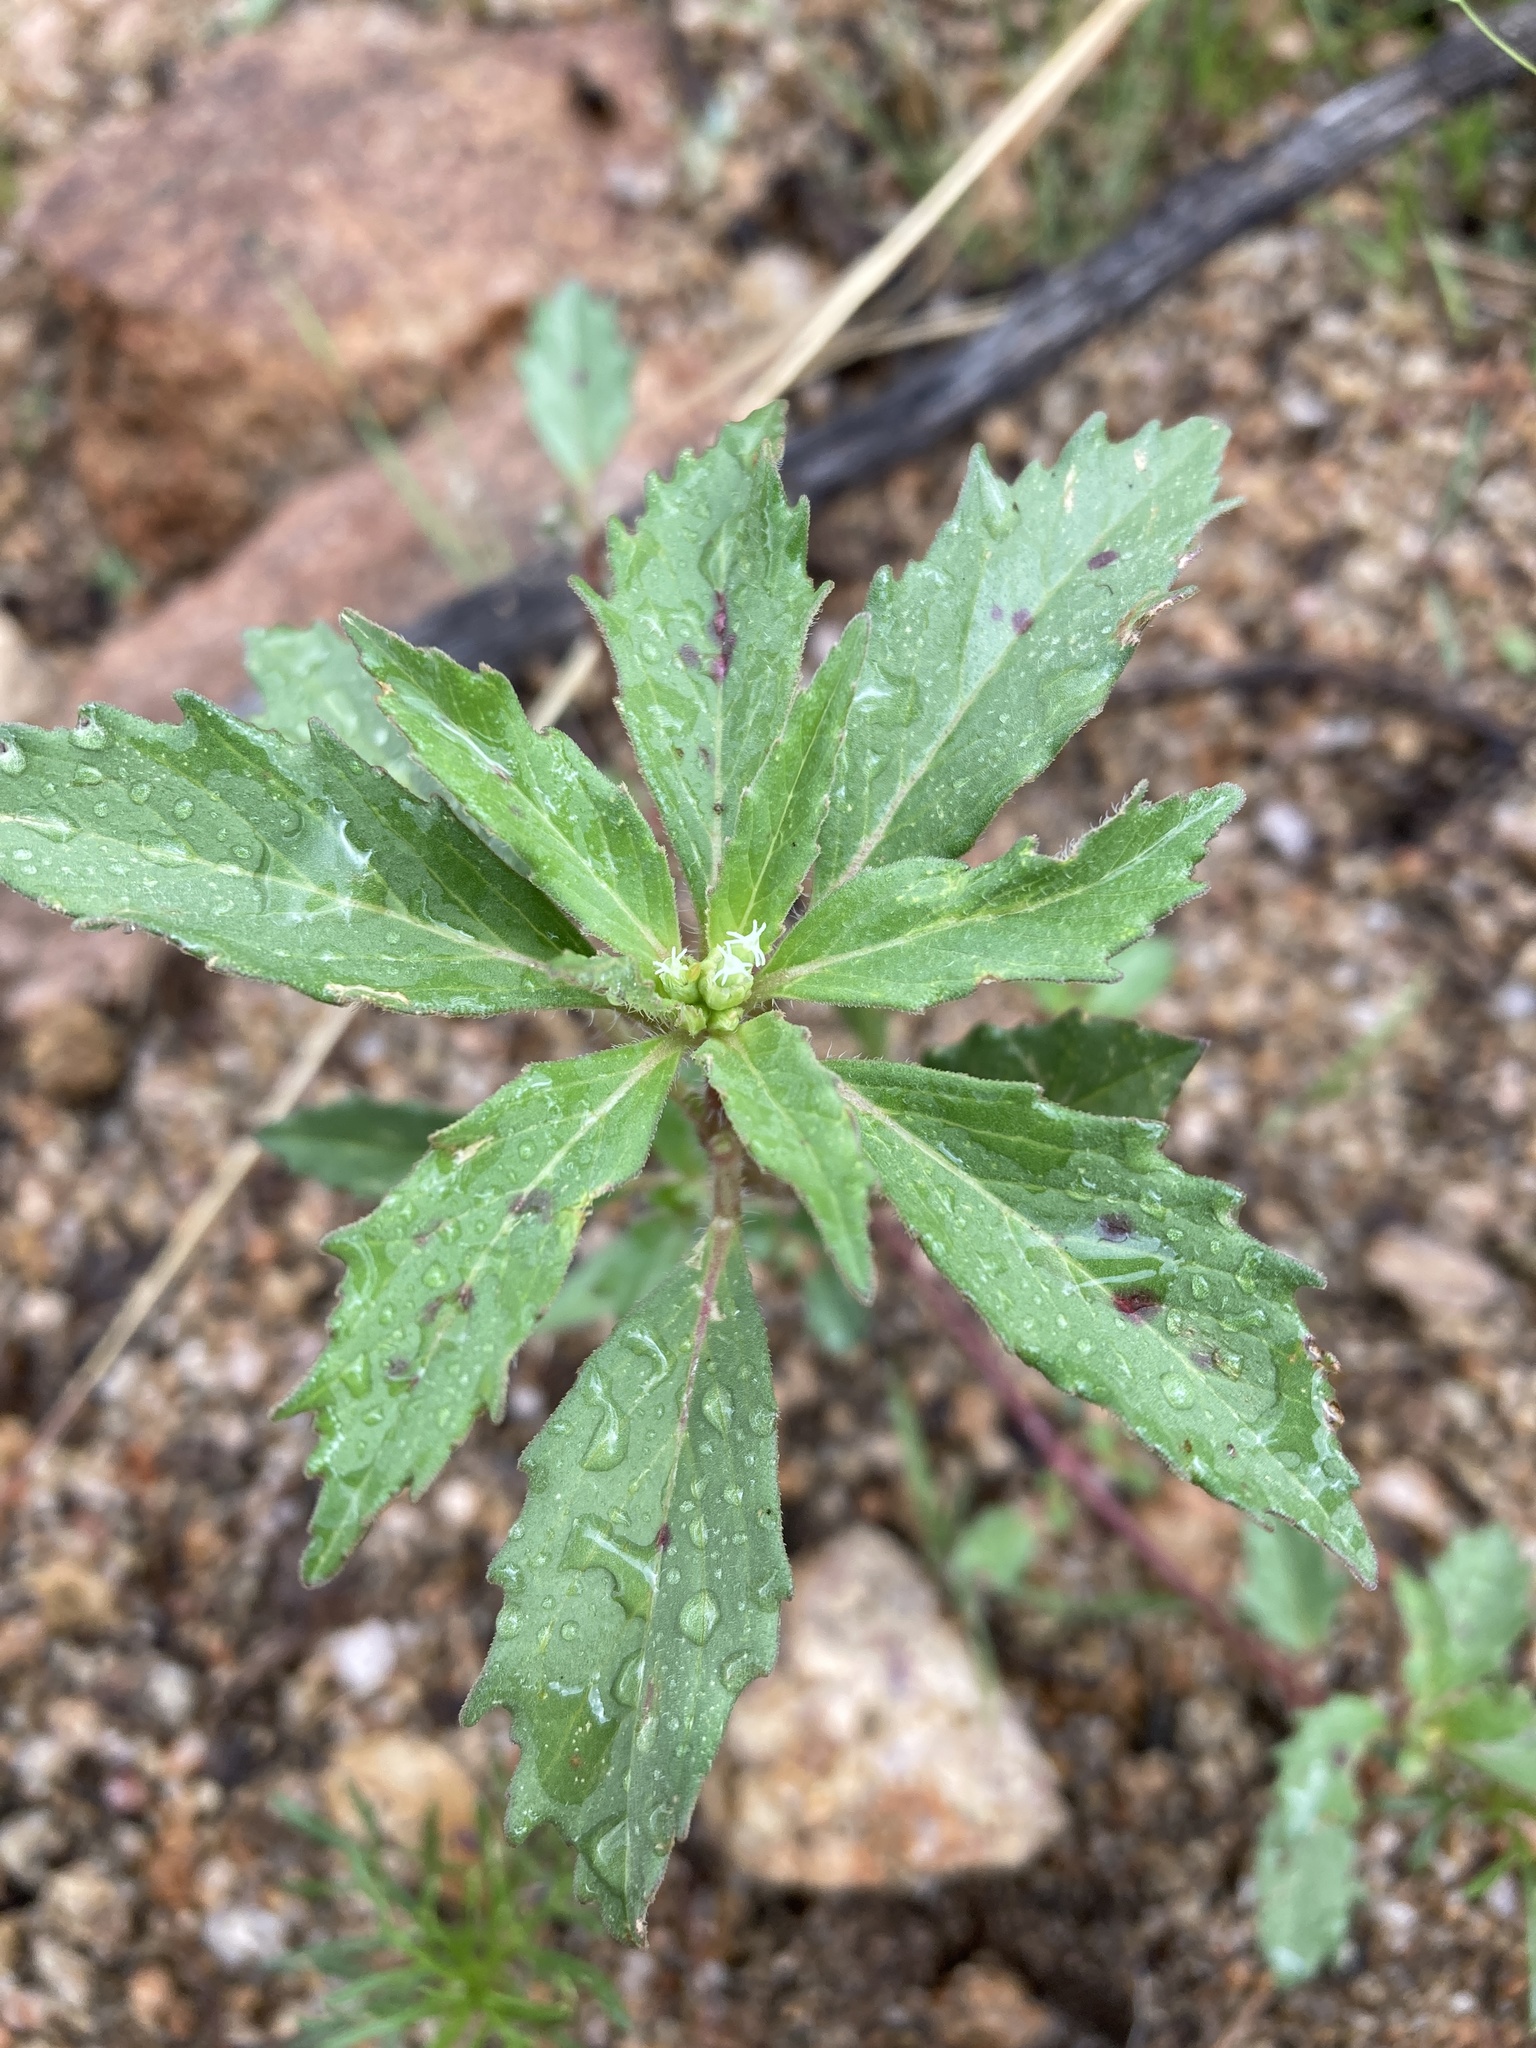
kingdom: Plantae
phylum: Tracheophyta
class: Magnoliopsida
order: Malpighiales
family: Euphorbiaceae
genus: Euphorbia
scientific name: Euphorbia davidii
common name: David's spurge
